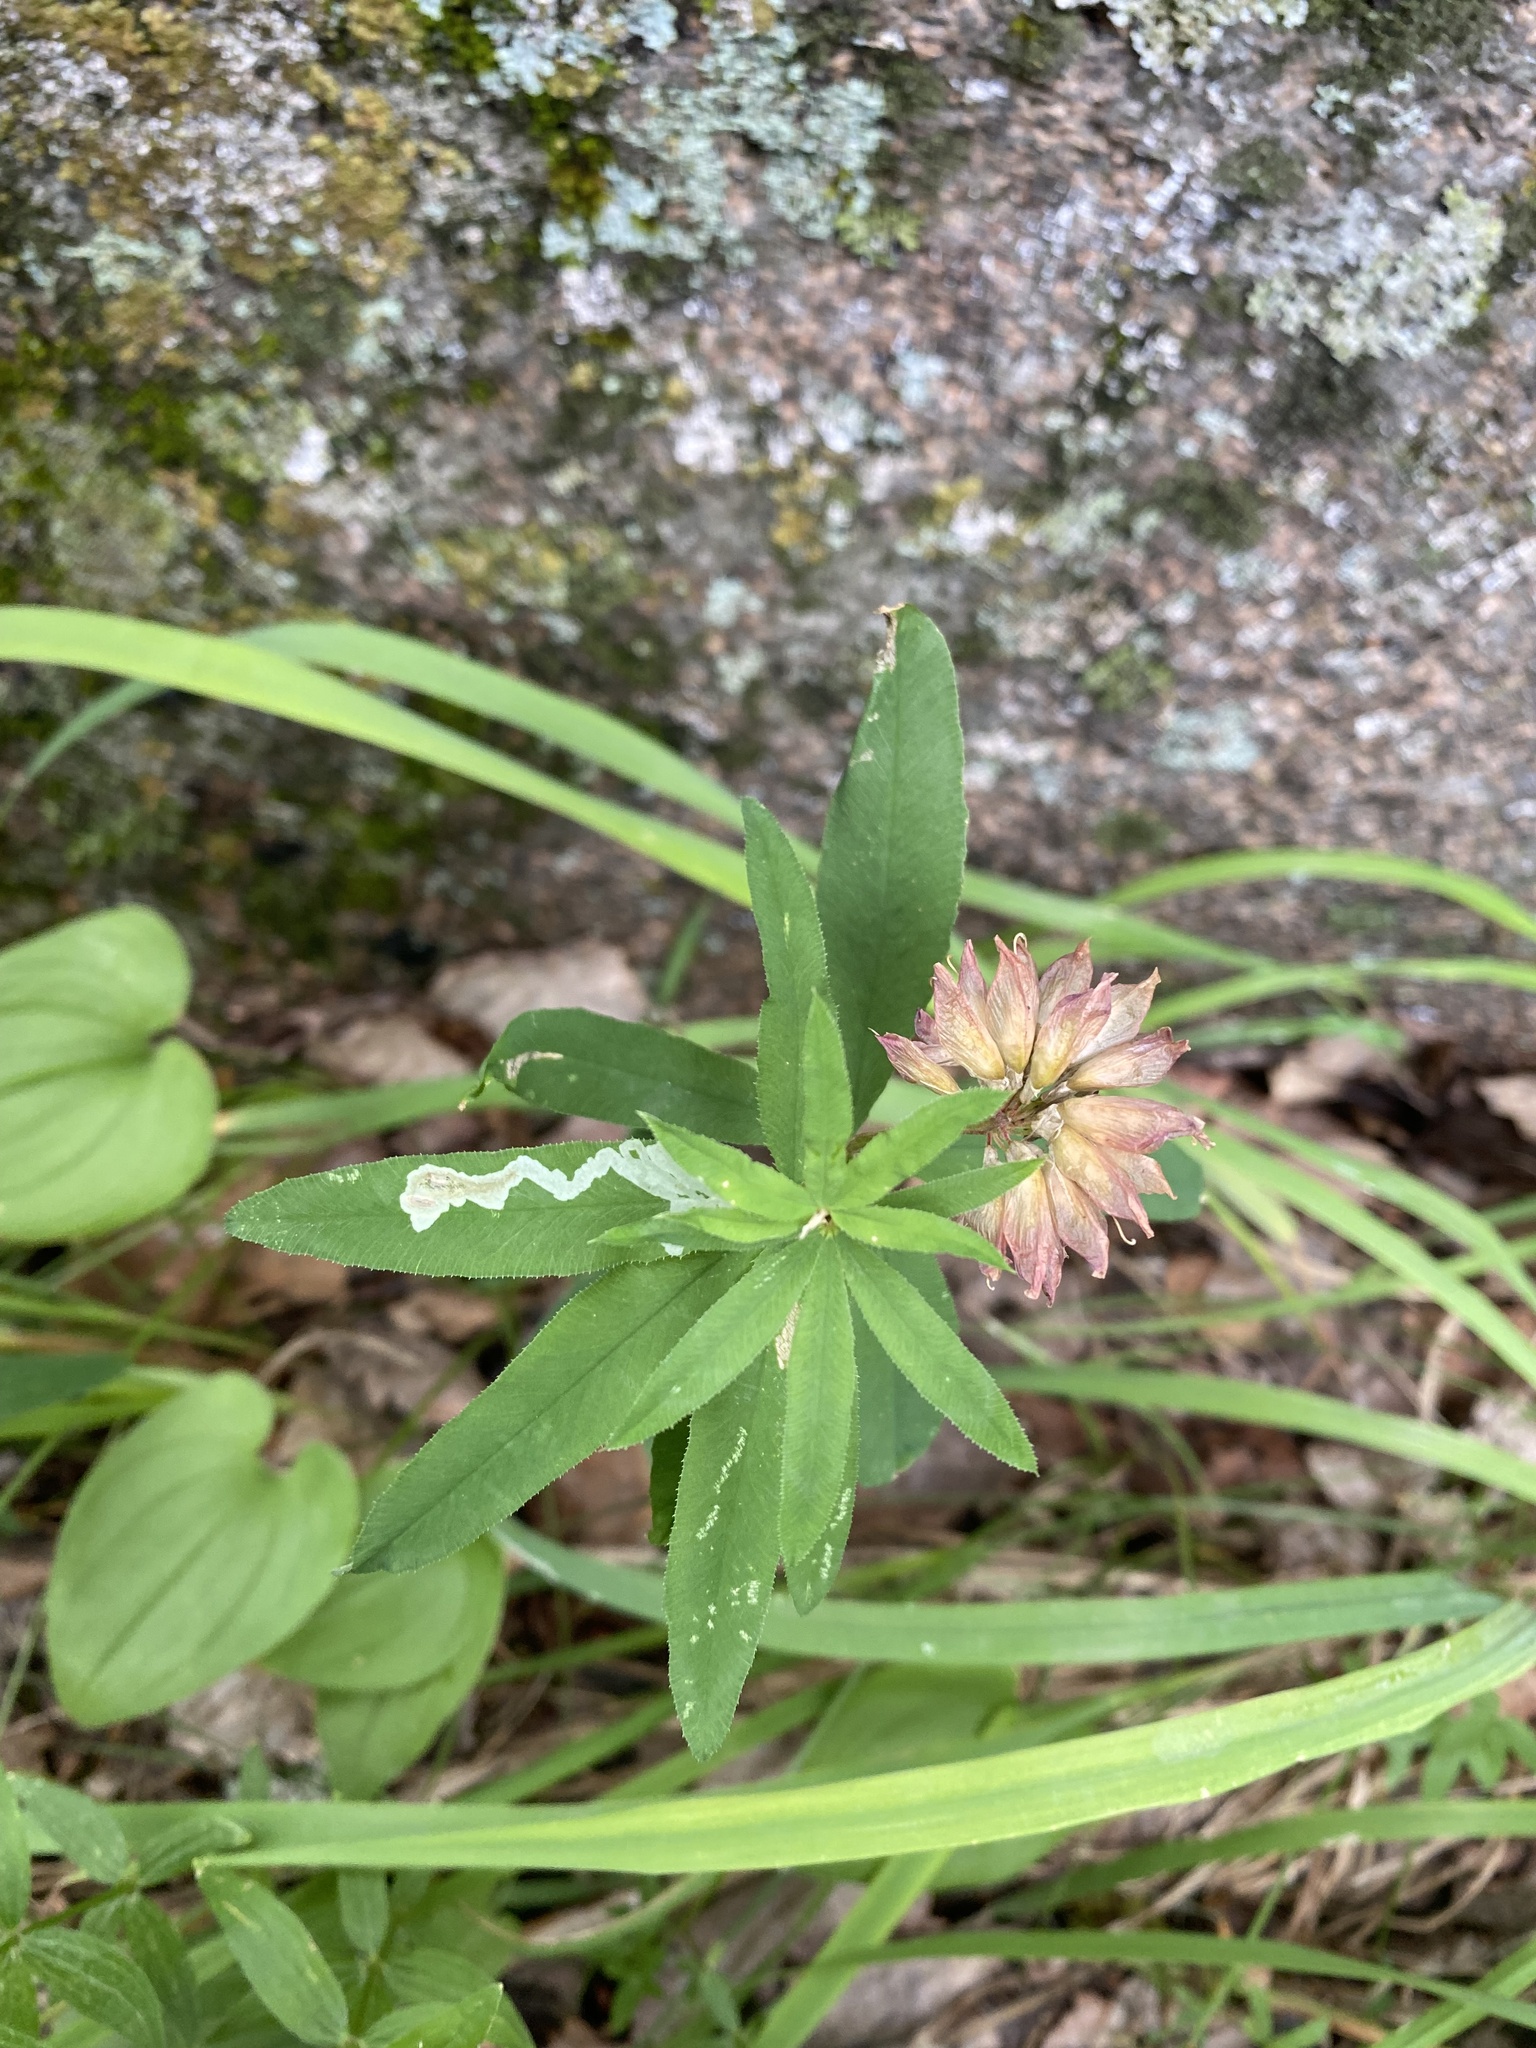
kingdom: Plantae
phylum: Tracheophyta
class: Magnoliopsida
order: Fabales
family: Fabaceae
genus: Trifolium
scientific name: Trifolium lupinaster
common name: Lupine clover
